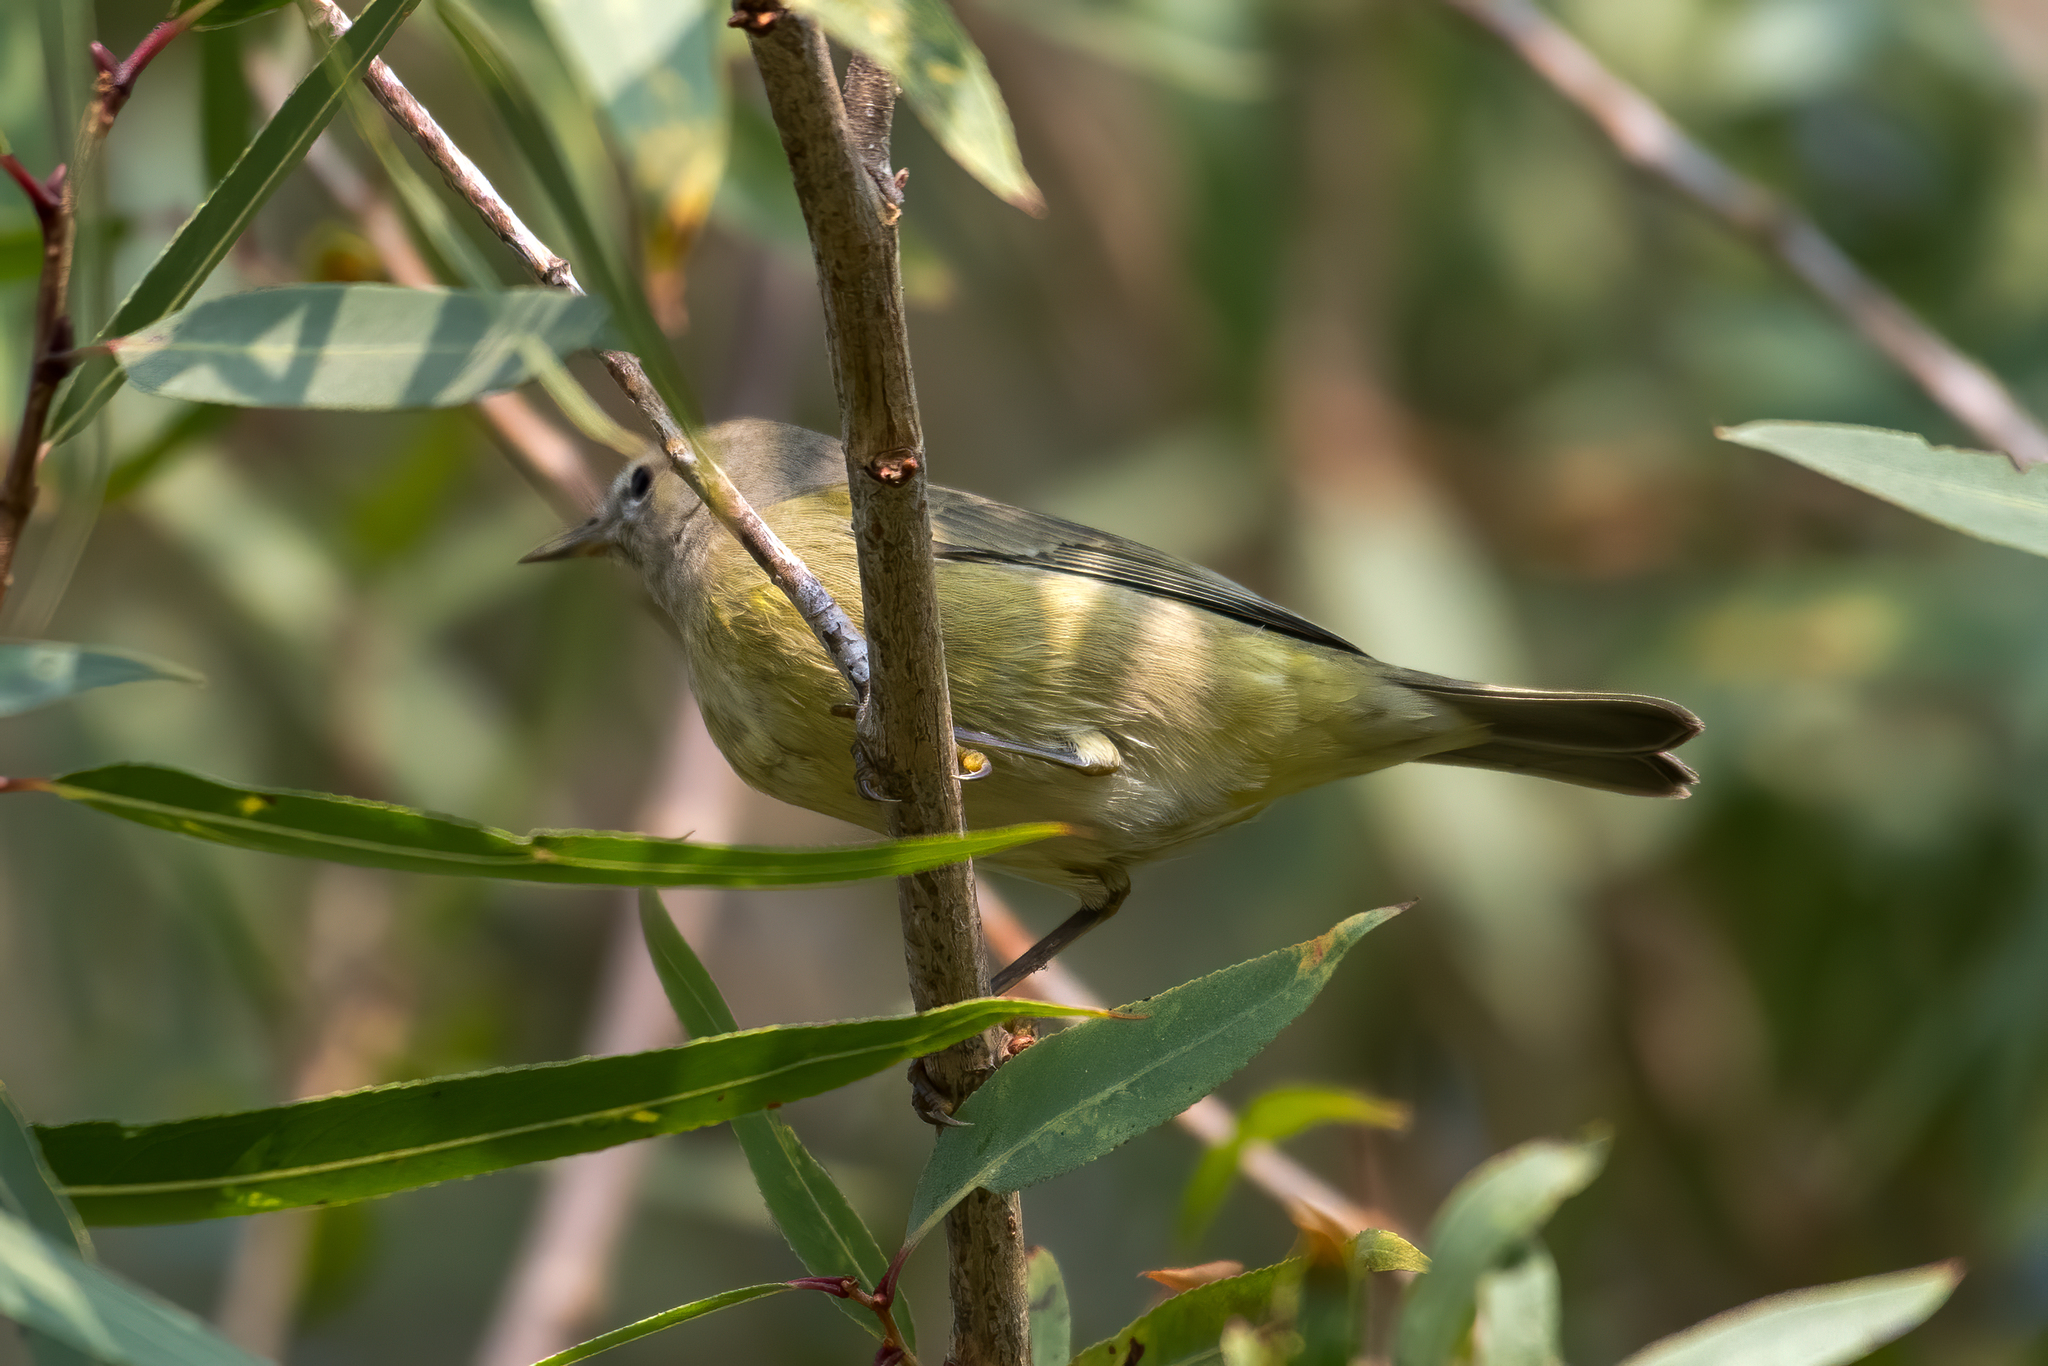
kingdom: Animalia
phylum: Chordata
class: Aves
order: Passeriformes
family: Parulidae
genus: Leiothlypis
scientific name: Leiothlypis celata
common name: Orange-crowned warbler
